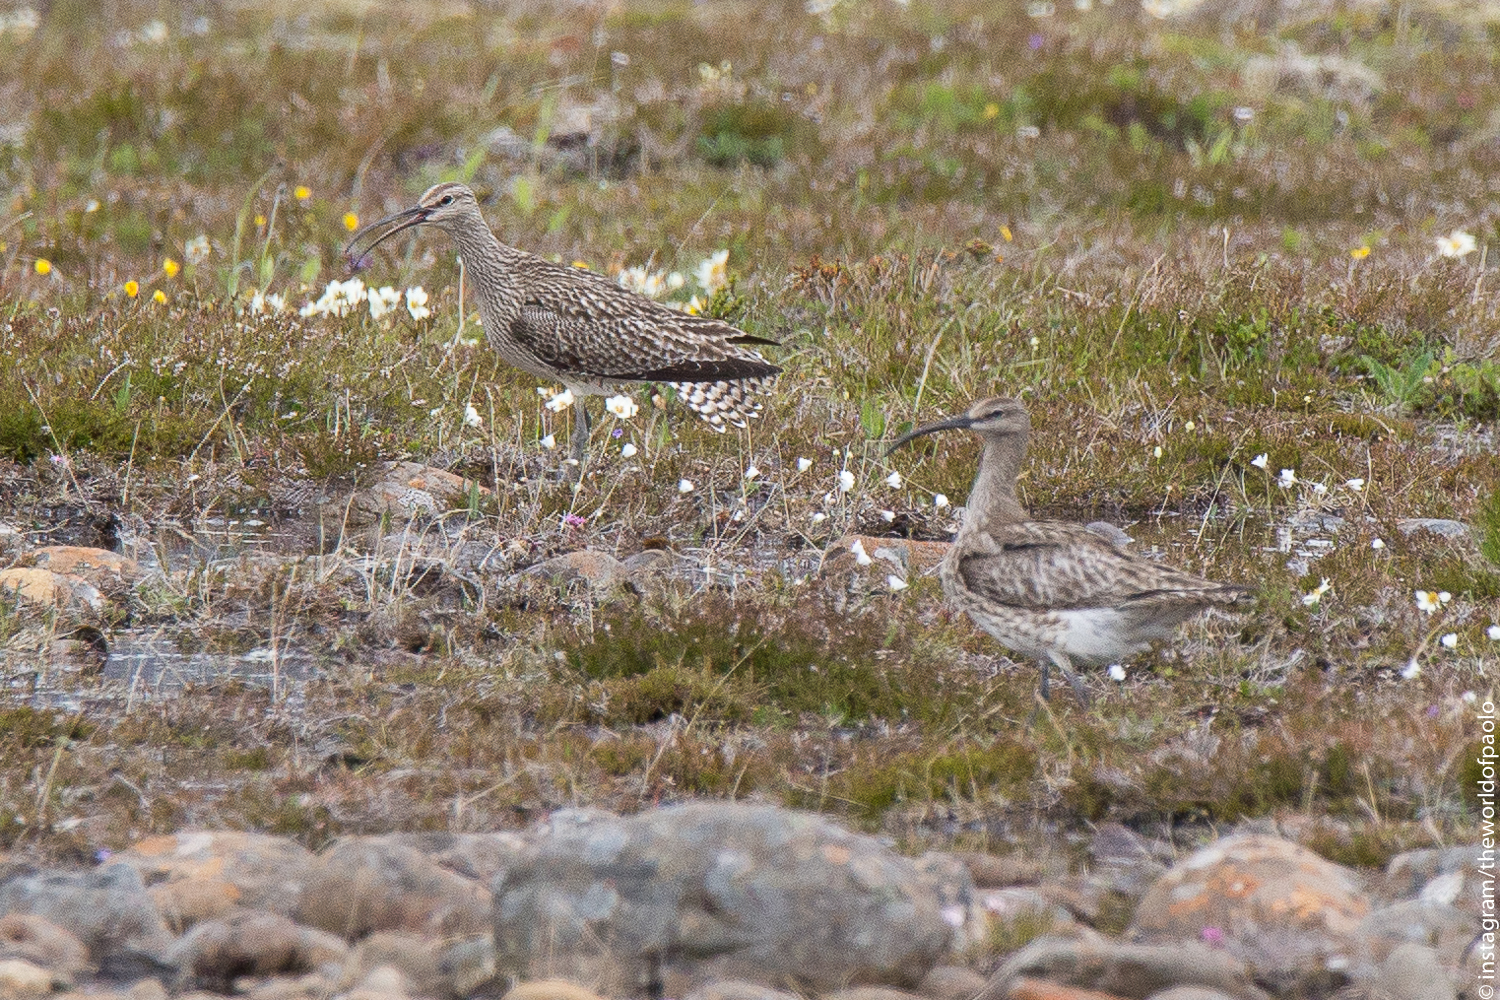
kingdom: Animalia
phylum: Chordata
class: Aves
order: Charadriiformes
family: Scolopacidae
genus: Numenius
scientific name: Numenius phaeopus
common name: Whimbrel
